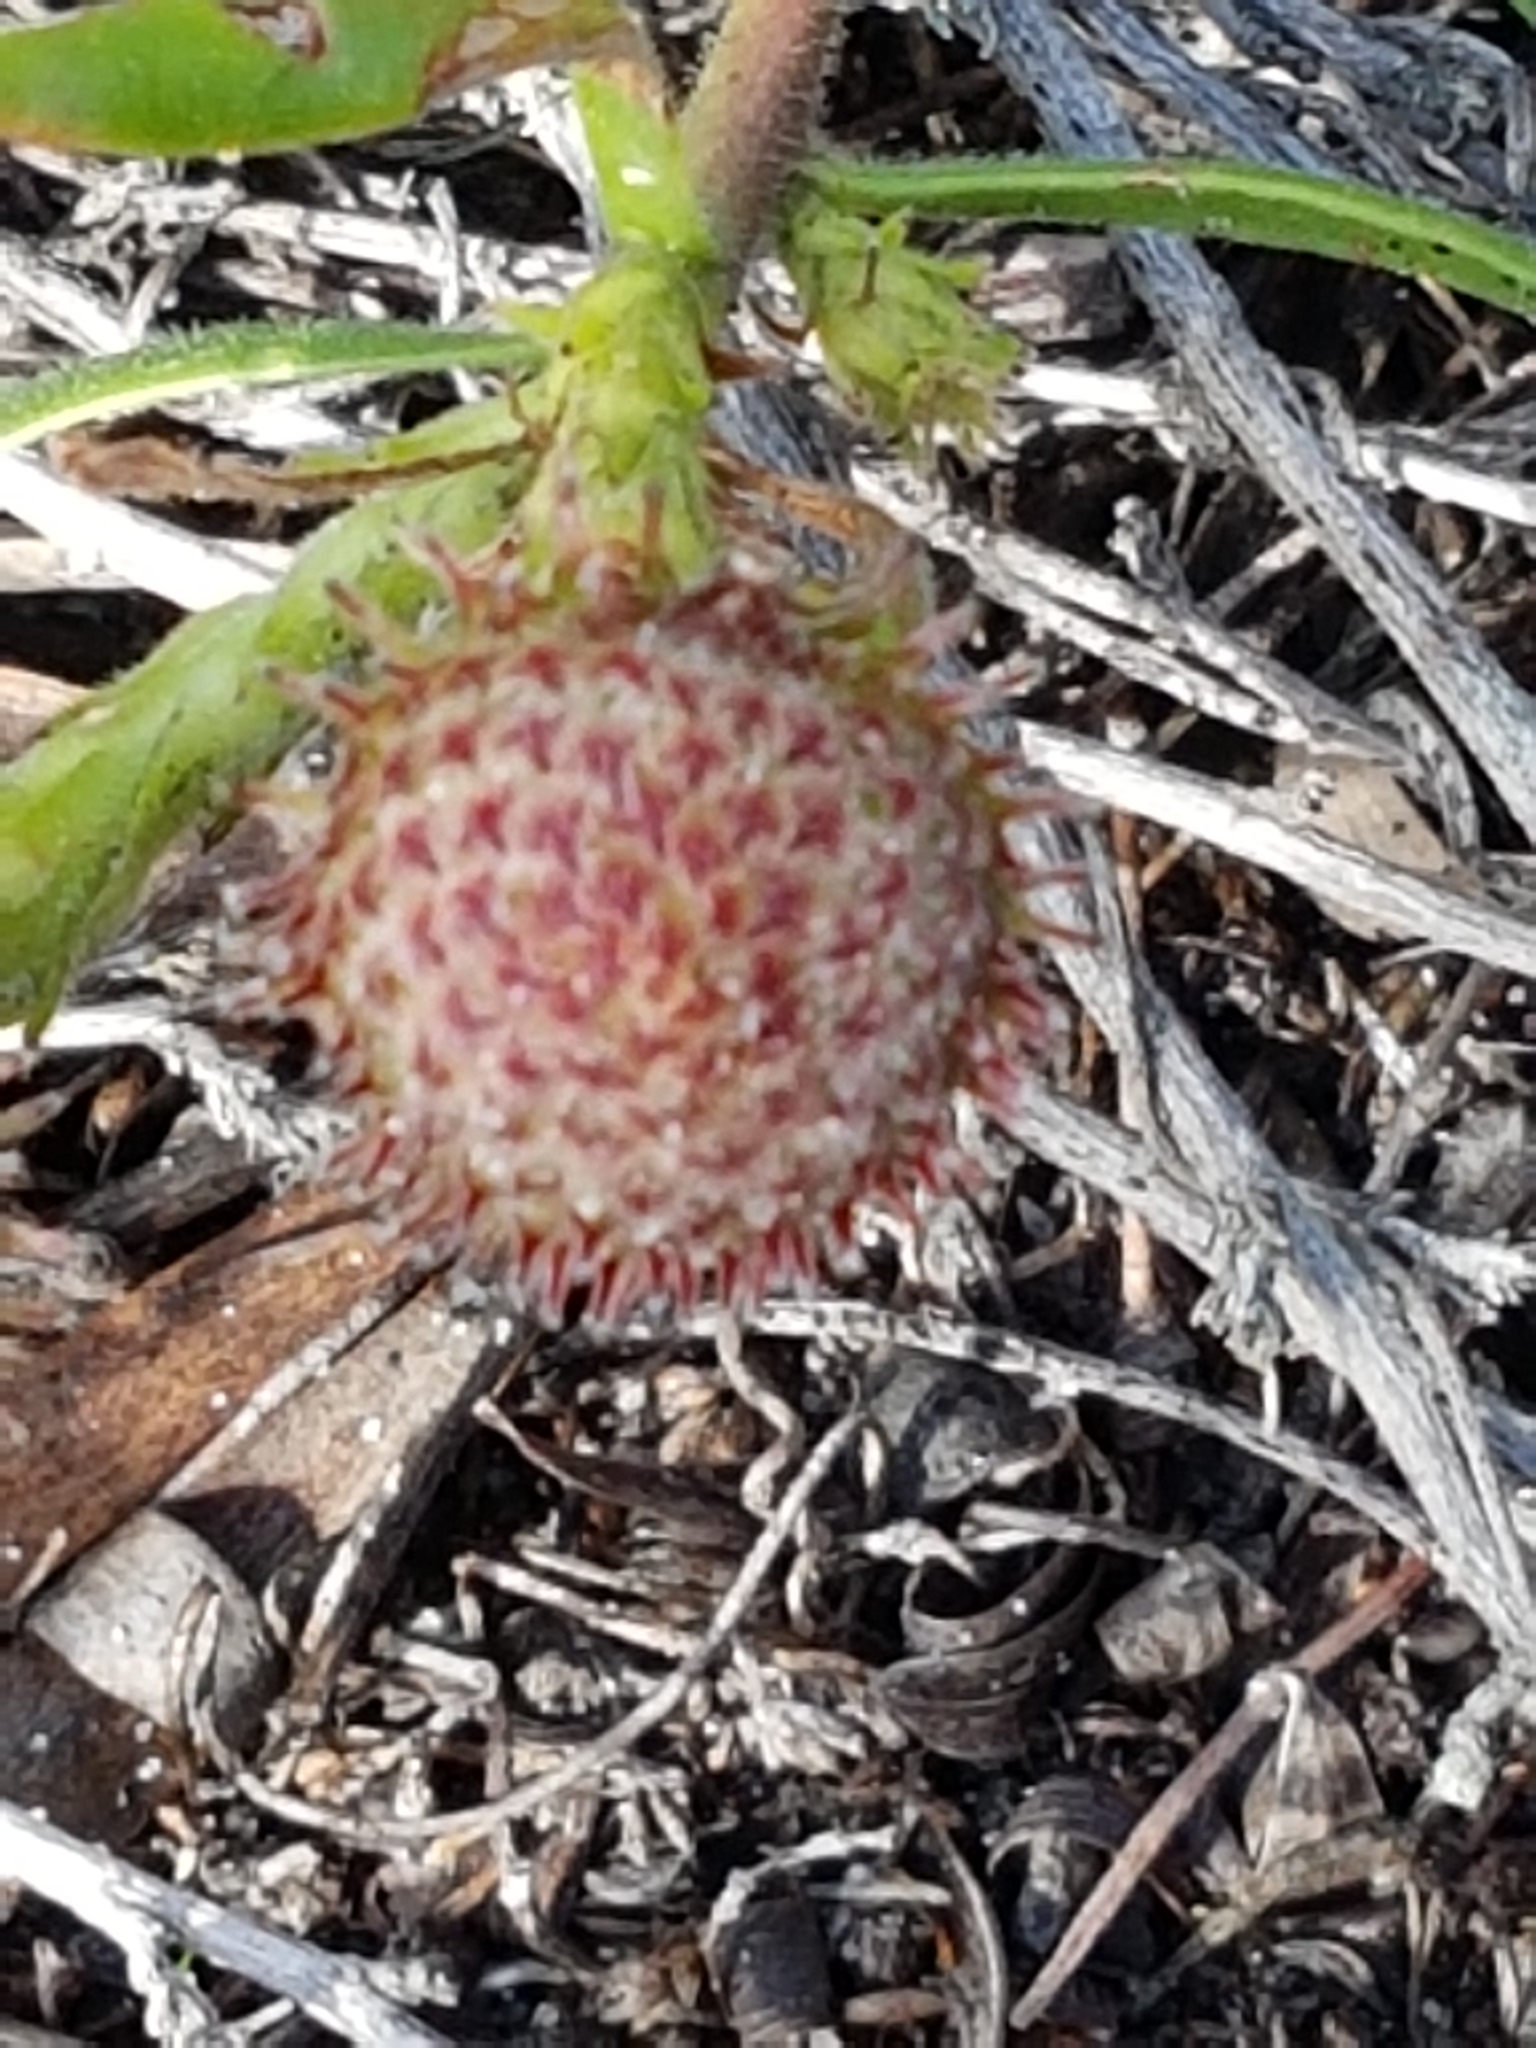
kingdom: Plantae
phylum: Tracheophyta
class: Magnoliopsida
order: Proteales
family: Proteaceae
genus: Leucospermum
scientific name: Leucospermum pedunculatum
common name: White-trailing pincushion
